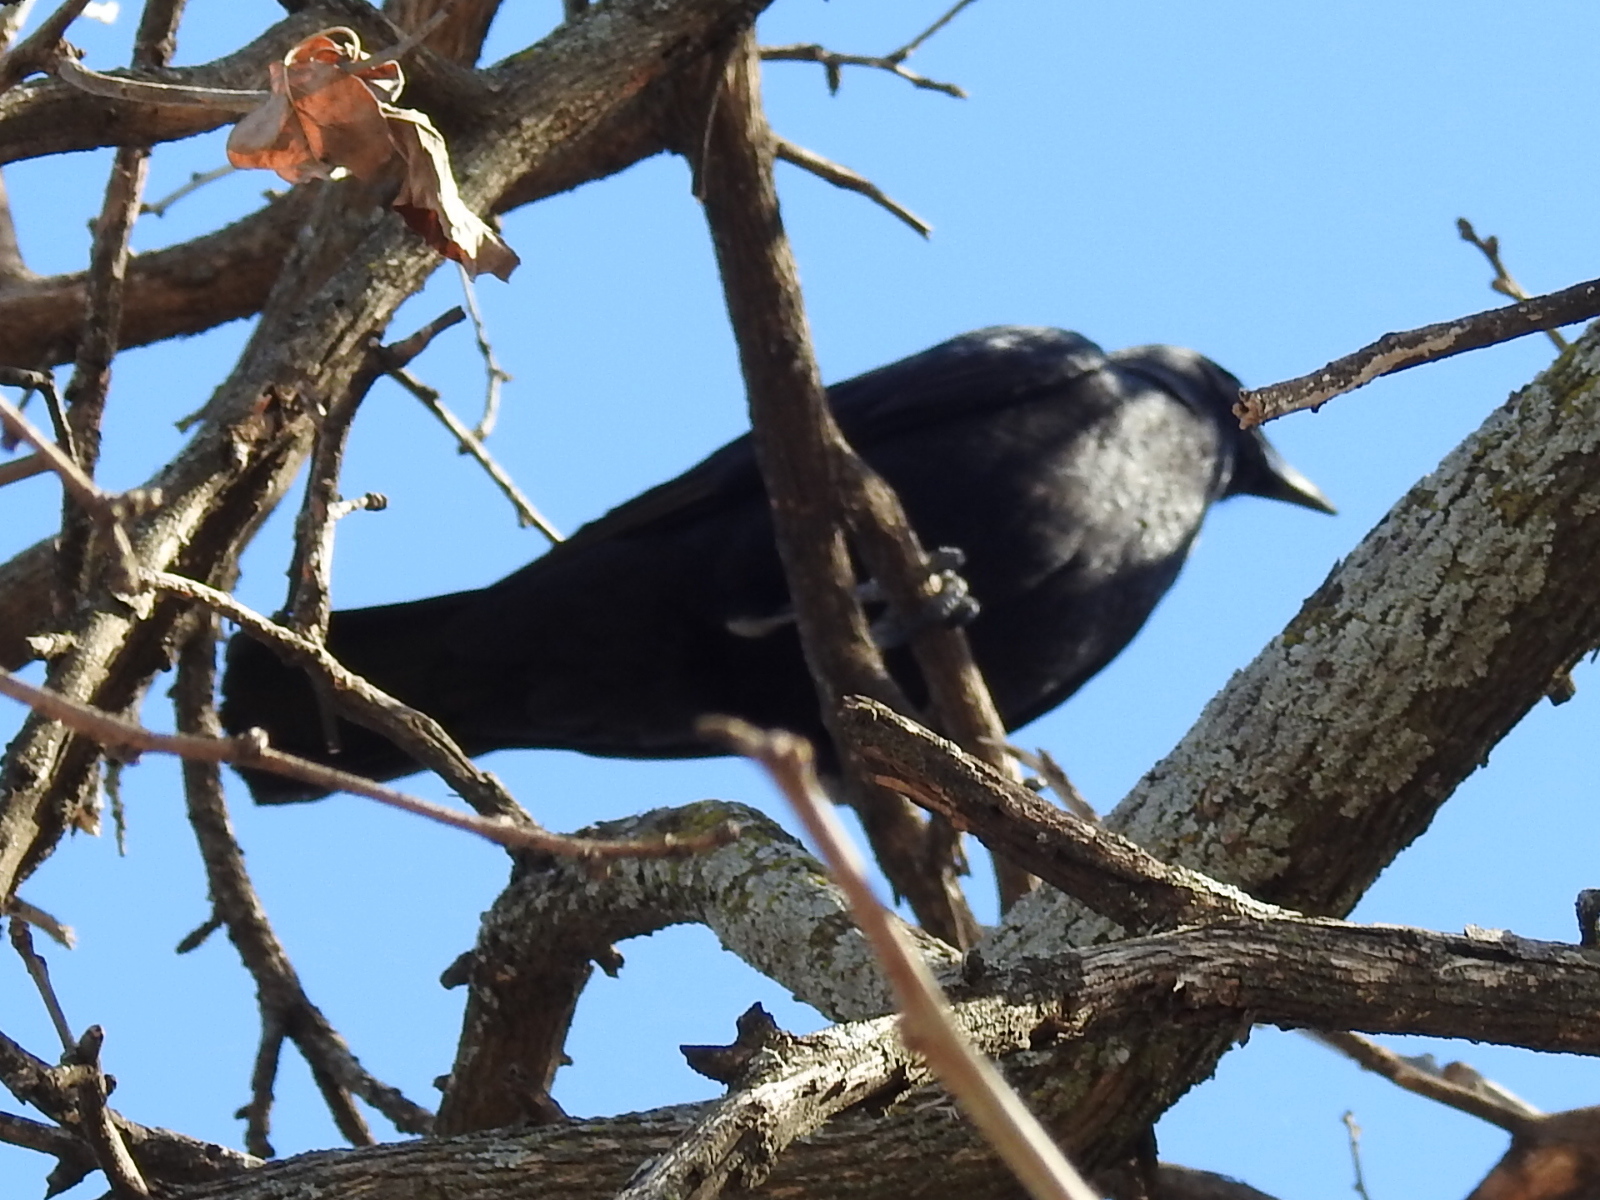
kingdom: Animalia
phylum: Chordata
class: Aves
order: Passeriformes
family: Corvidae
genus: Corvus
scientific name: Corvus brachyrhynchos
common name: American crow
